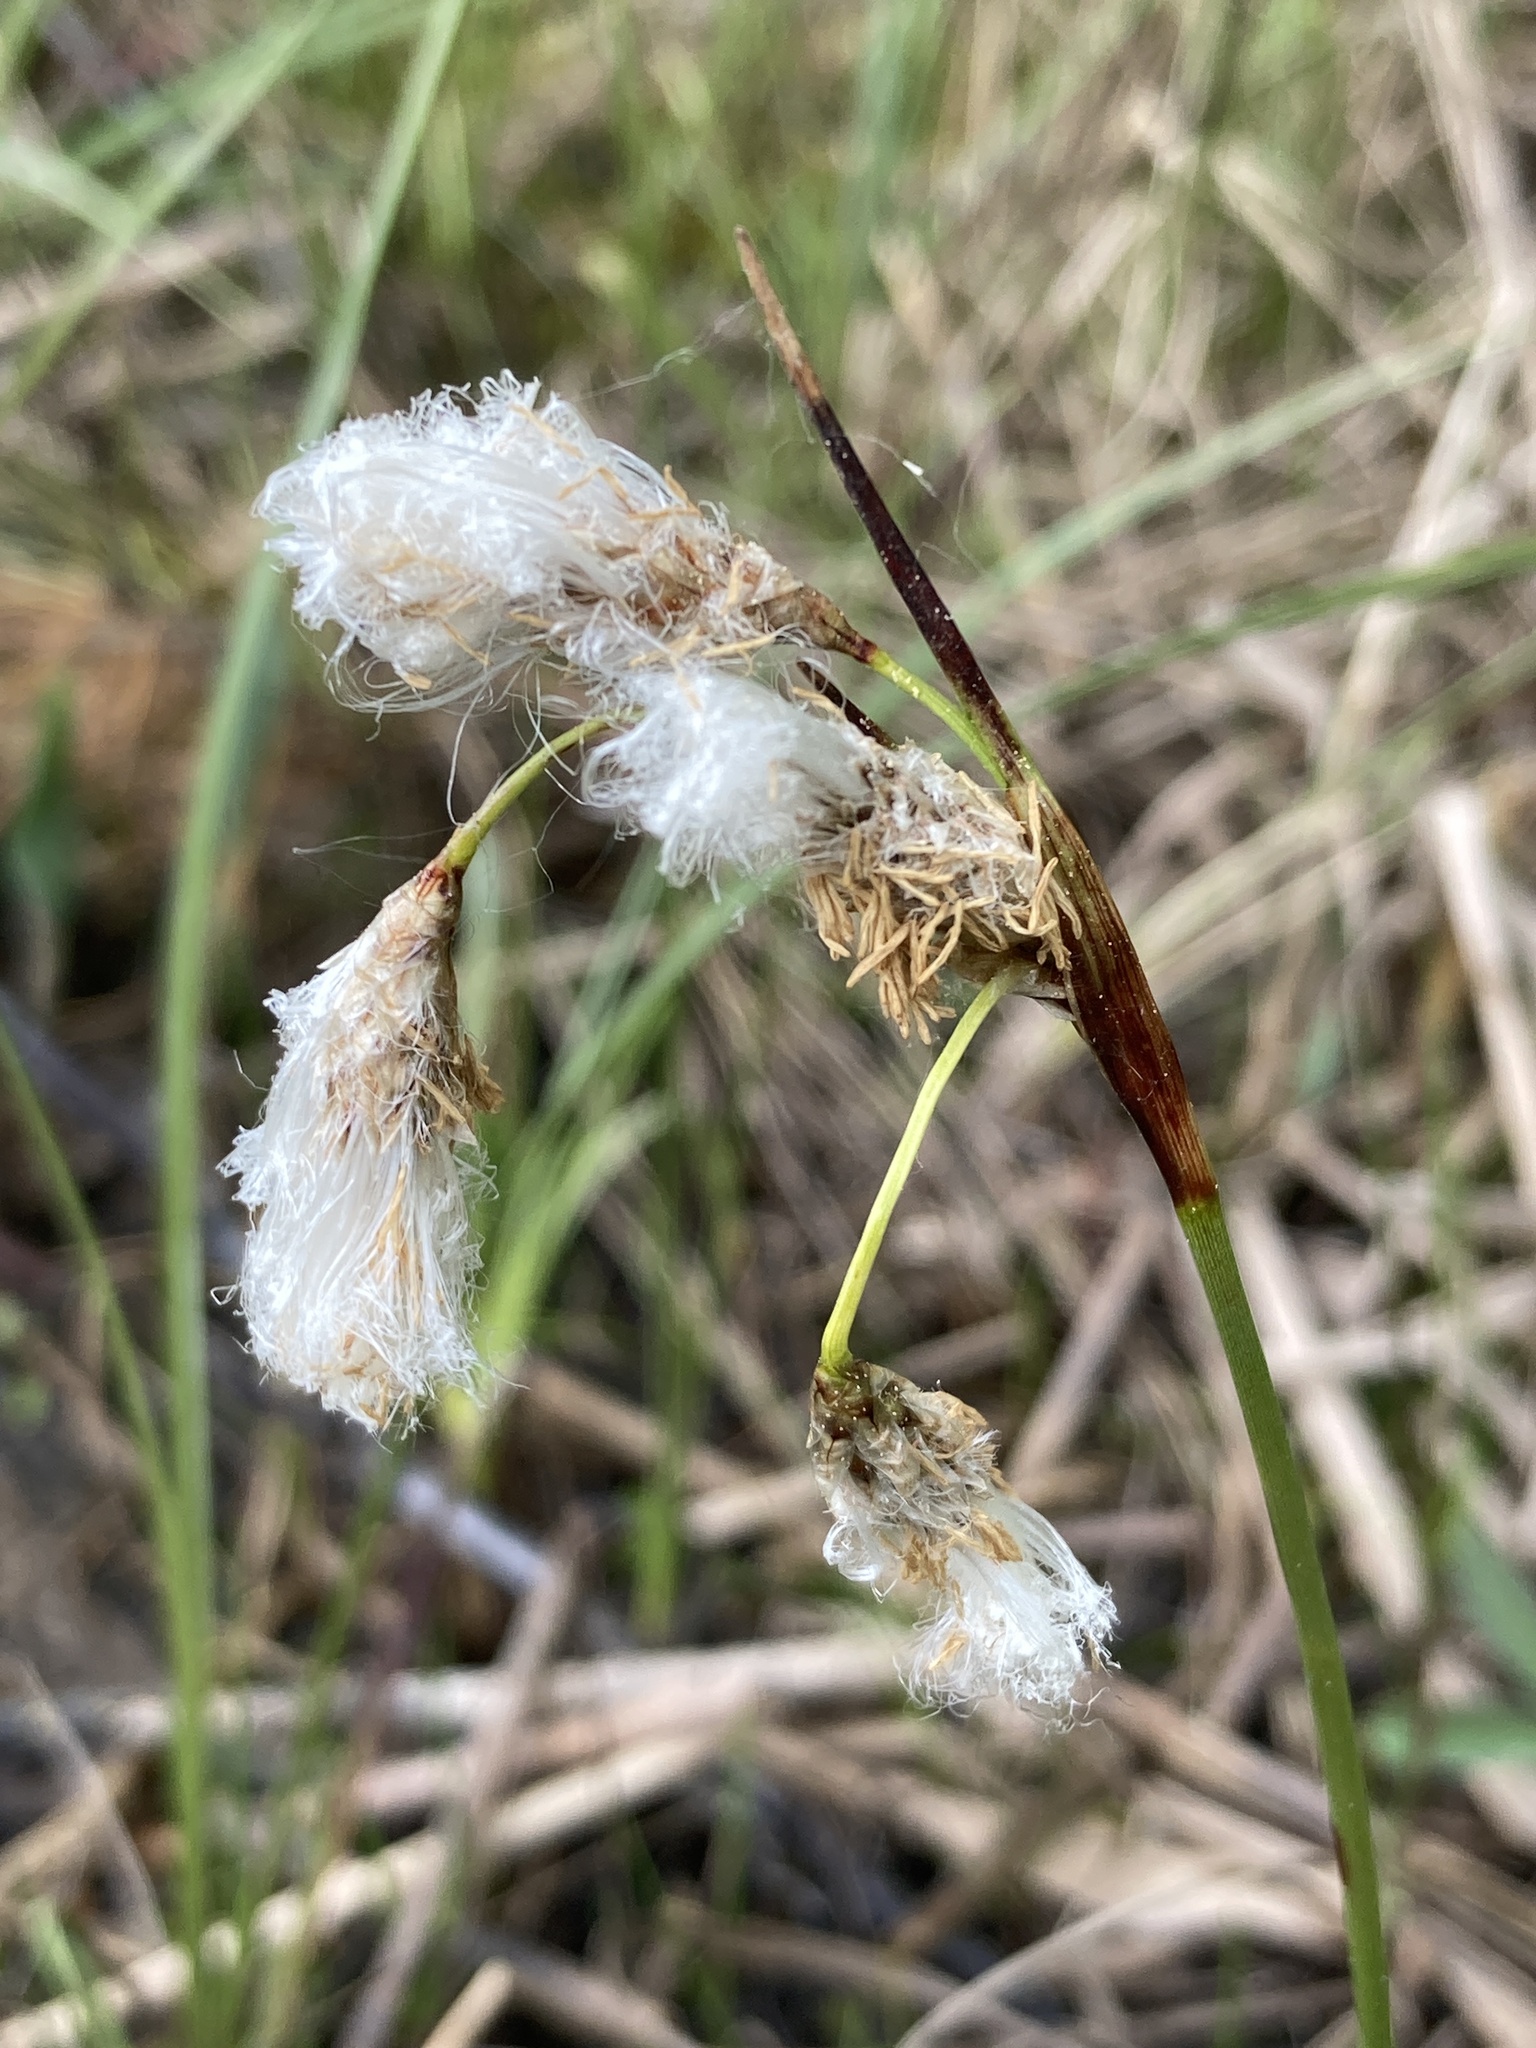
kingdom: Plantae
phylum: Tracheophyta
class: Liliopsida
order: Poales
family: Cyperaceae
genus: Eriophorum
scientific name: Eriophorum angustifolium
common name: Common cottongrass
